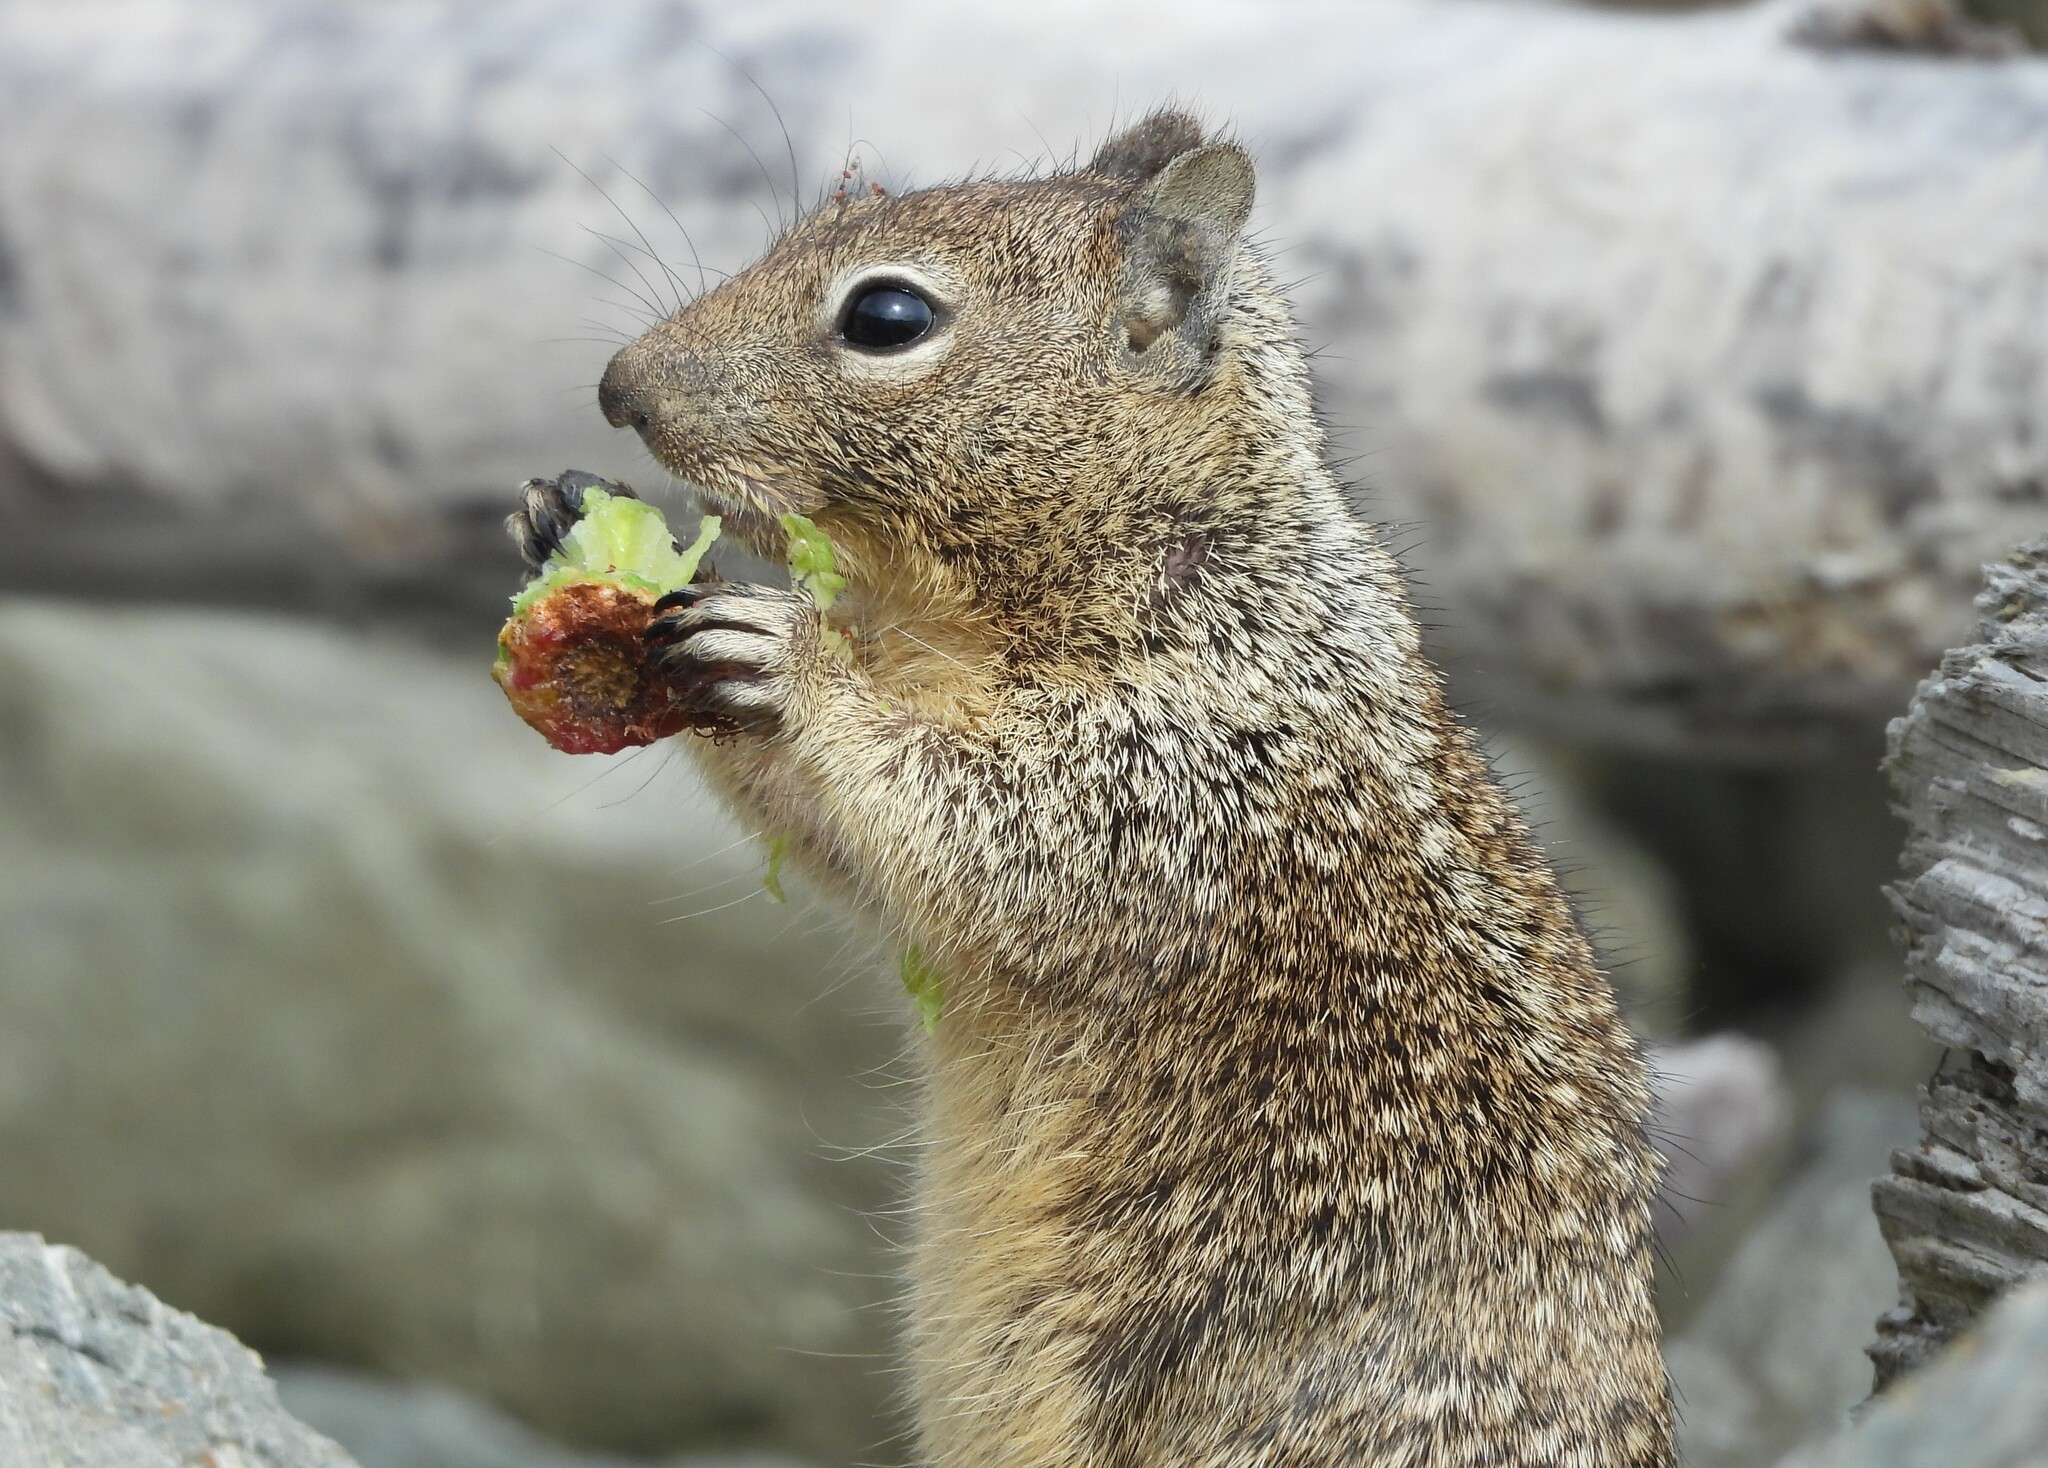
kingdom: Animalia
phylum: Chordata
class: Mammalia
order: Rodentia
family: Sciuridae
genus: Otospermophilus
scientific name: Otospermophilus beecheyi
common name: California ground squirrel
